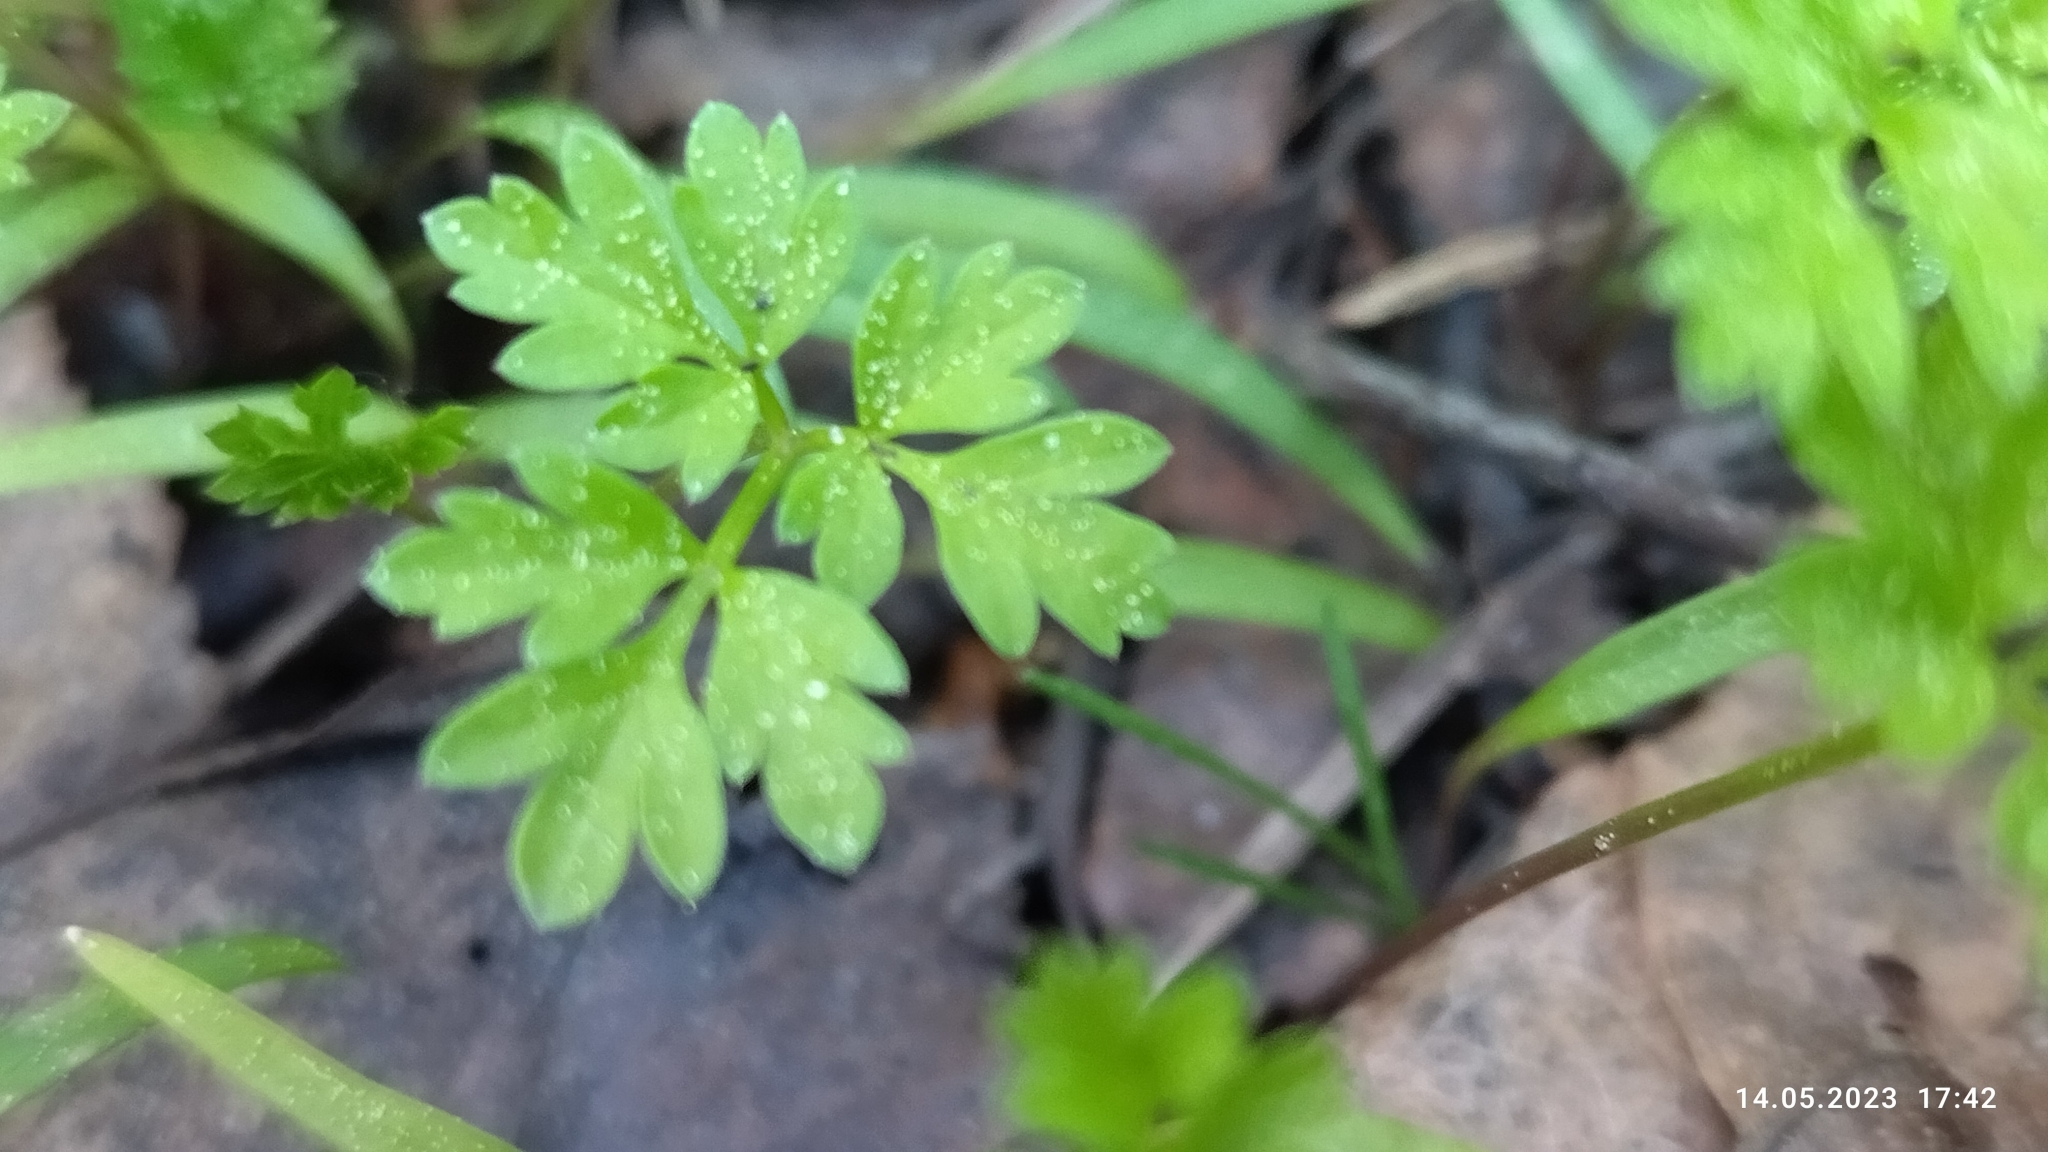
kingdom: Plantae
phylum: Tracheophyta
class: Magnoliopsida
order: Apiales
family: Apiaceae
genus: Anthriscus
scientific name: Anthriscus sylvestris
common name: Cow parsley
